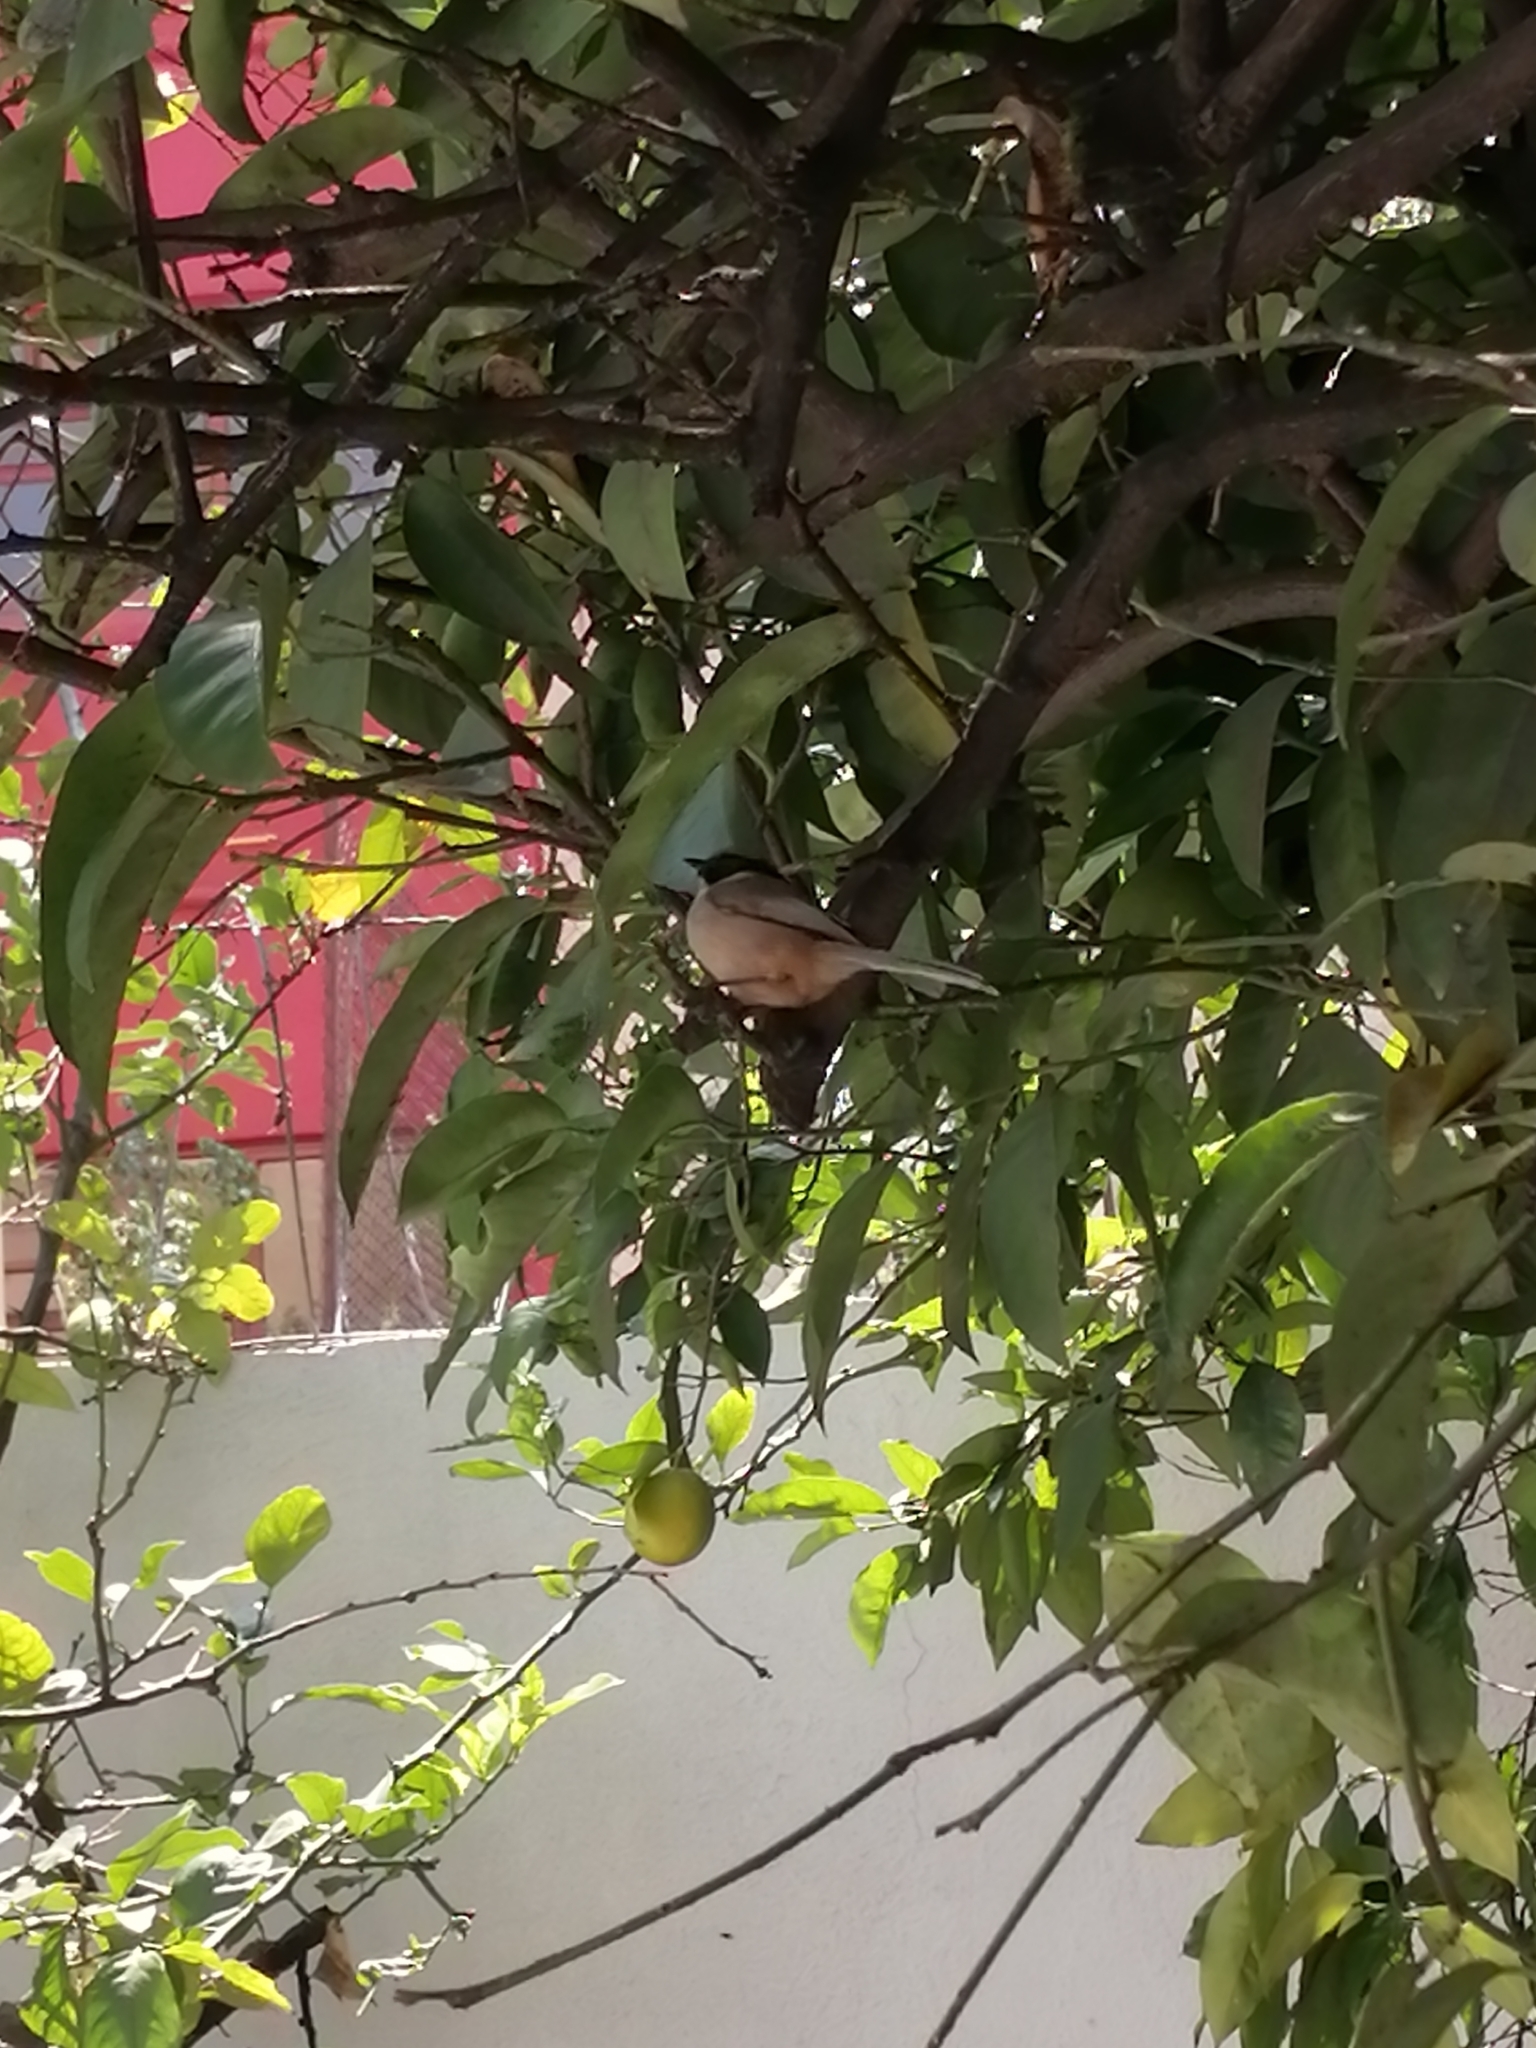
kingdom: Animalia
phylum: Chordata
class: Aves
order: Passeriformes
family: Aegithalidae
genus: Psaltriparus
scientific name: Psaltriparus minimus
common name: American bushtit
